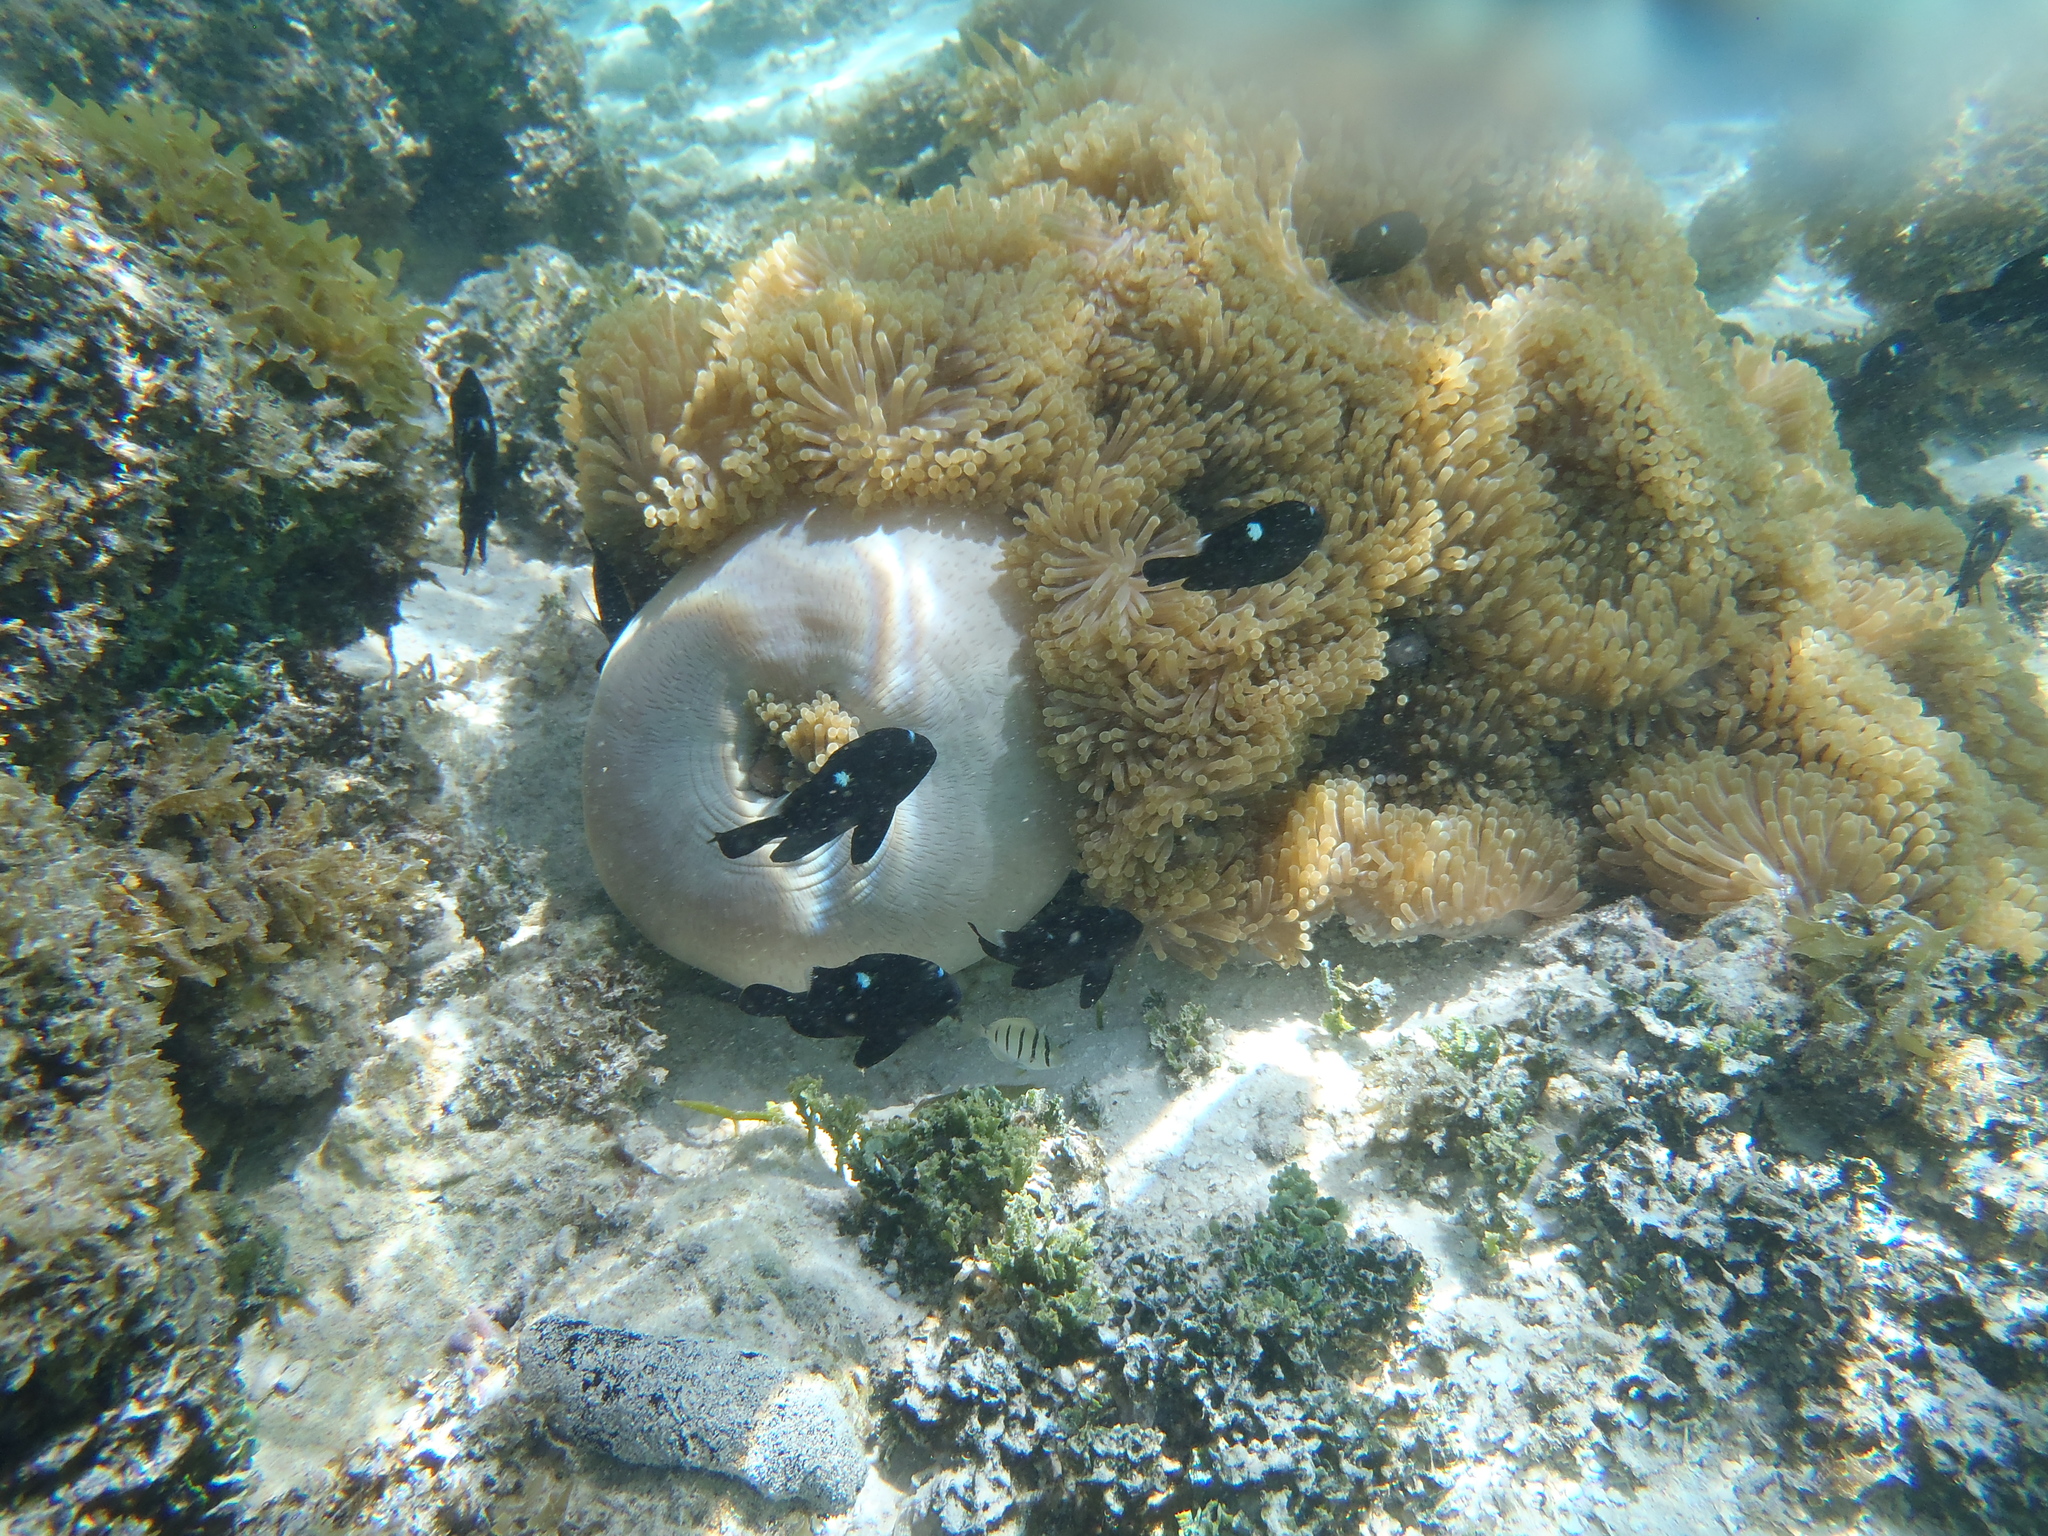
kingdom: Animalia
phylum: Chordata
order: Perciformes
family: Pomacentridae
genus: Dascyllus
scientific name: Dascyllus trimaculatus
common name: Threespot dascyllus
